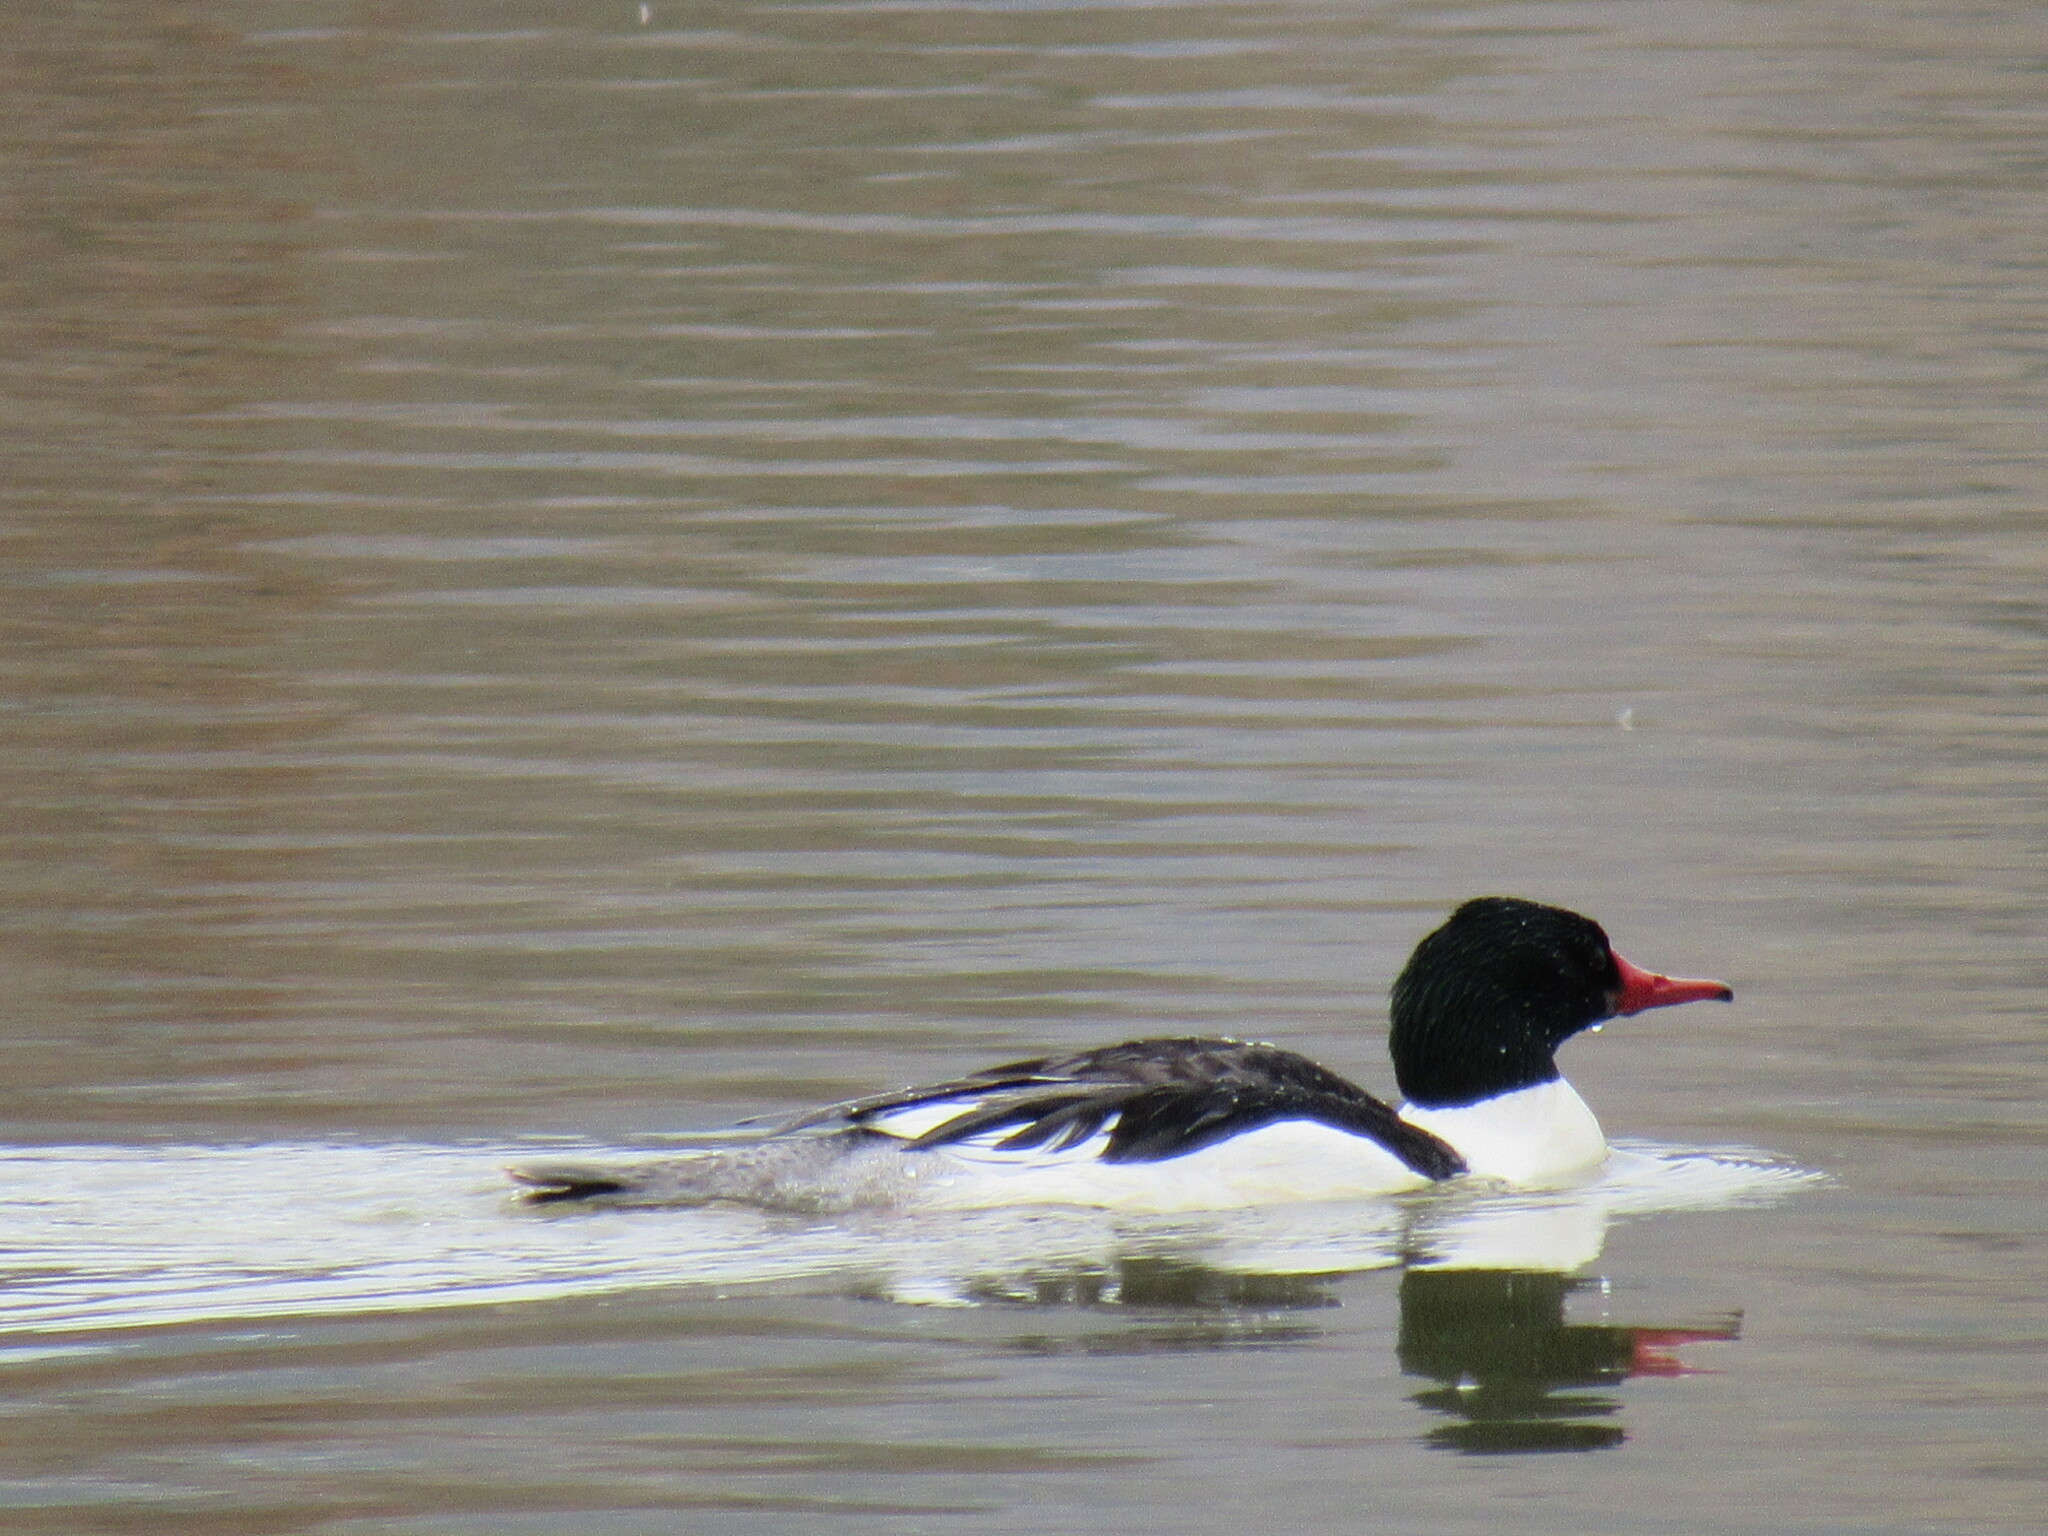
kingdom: Animalia
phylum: Chordata
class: Aves
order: Anseriformes
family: Anatidae
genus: Mergus
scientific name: Mergus merganser
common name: Common merganser
